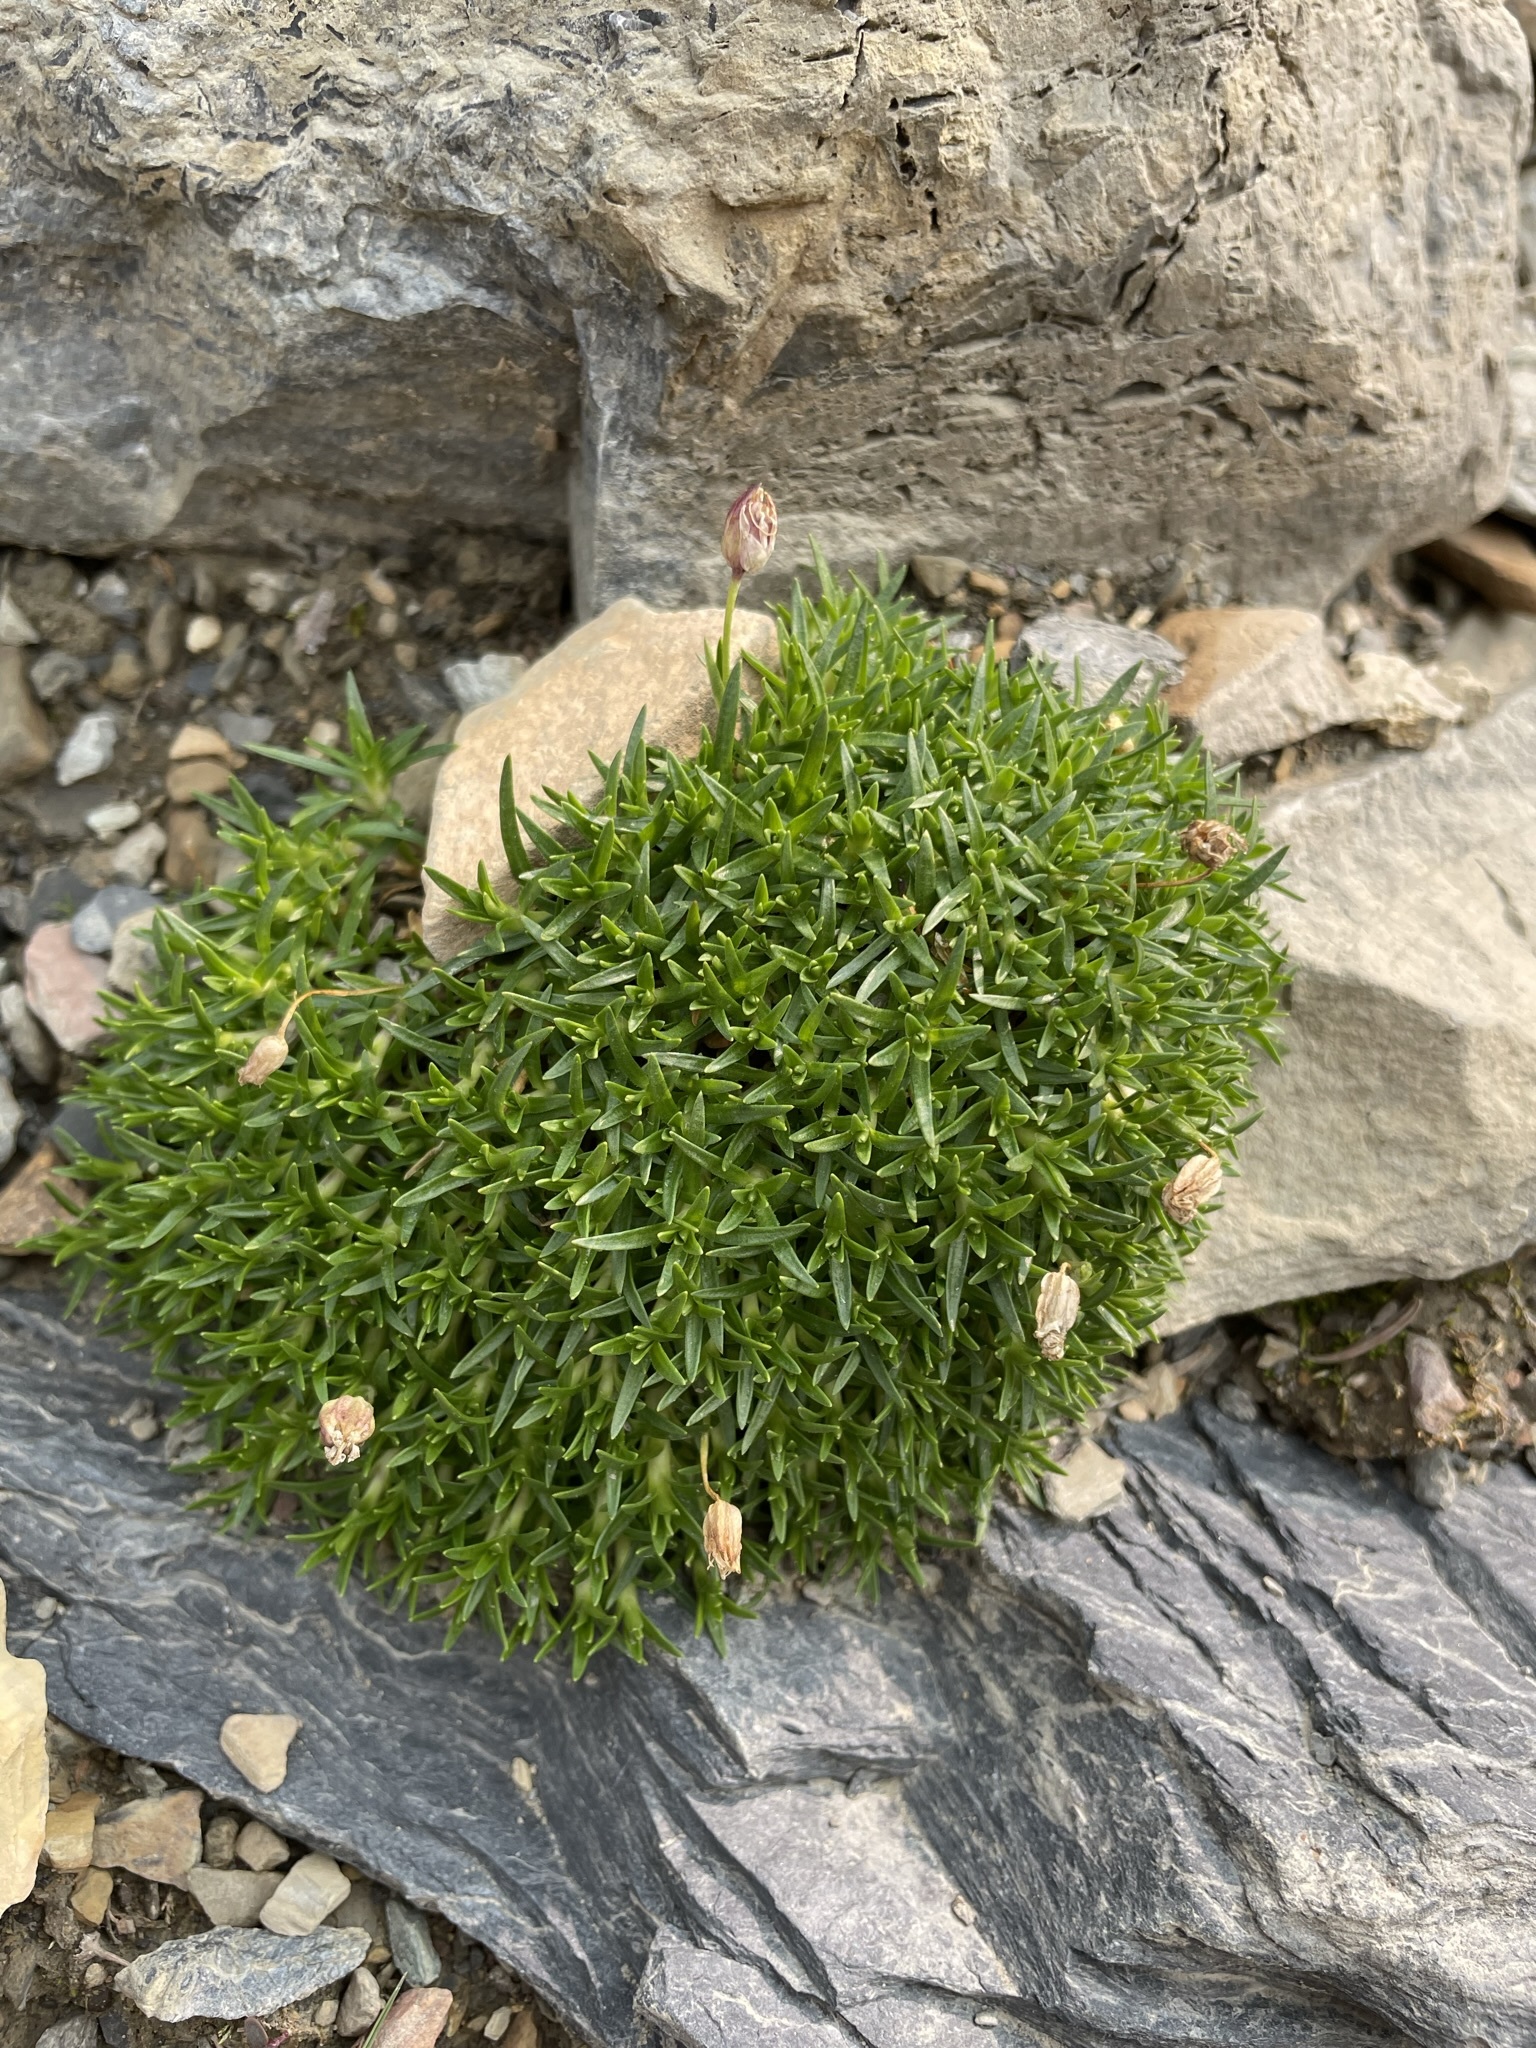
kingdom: Plantae
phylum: Tracheophyta
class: Magnoliopsida
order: Caryophyllales
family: Caryophyllaceae
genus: Silene
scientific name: Silene acaulis
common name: Moss campion
